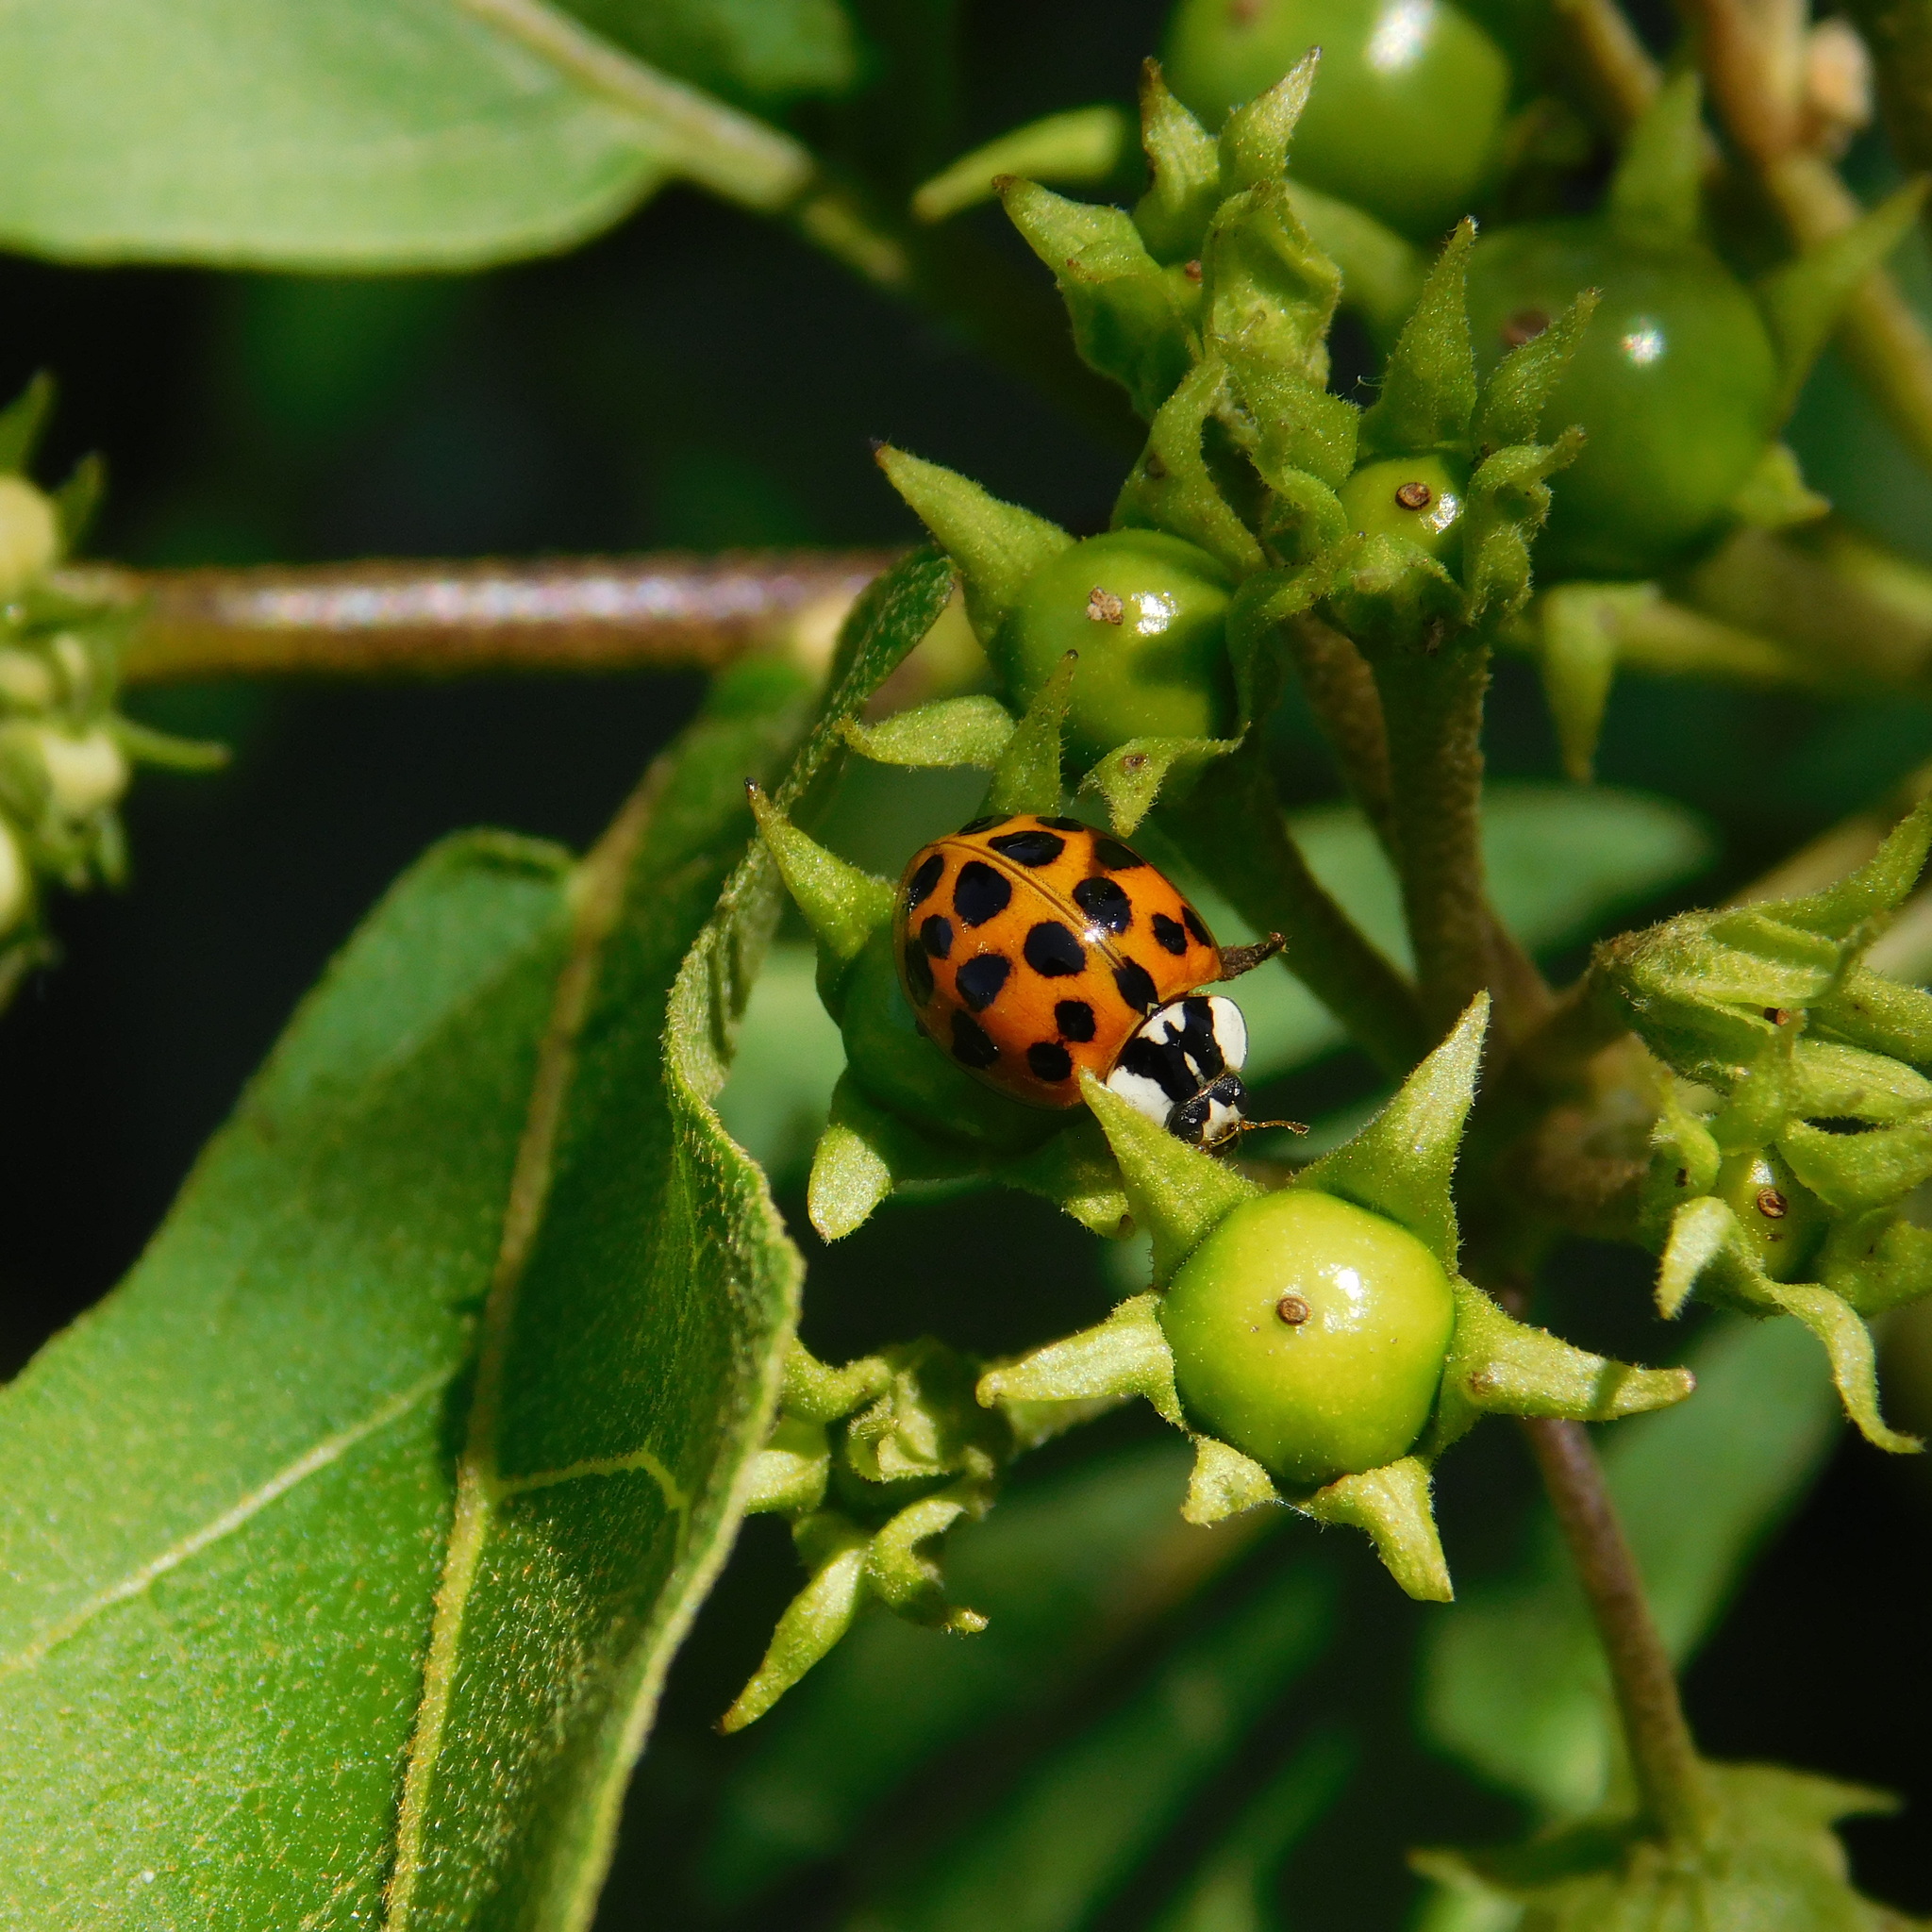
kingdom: Animalia
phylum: Arthropoda
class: Insecta
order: Coleoptera
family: Coccinellidae
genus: Harmonia
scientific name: Harmonia axyridis
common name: Harlequin ladybird
